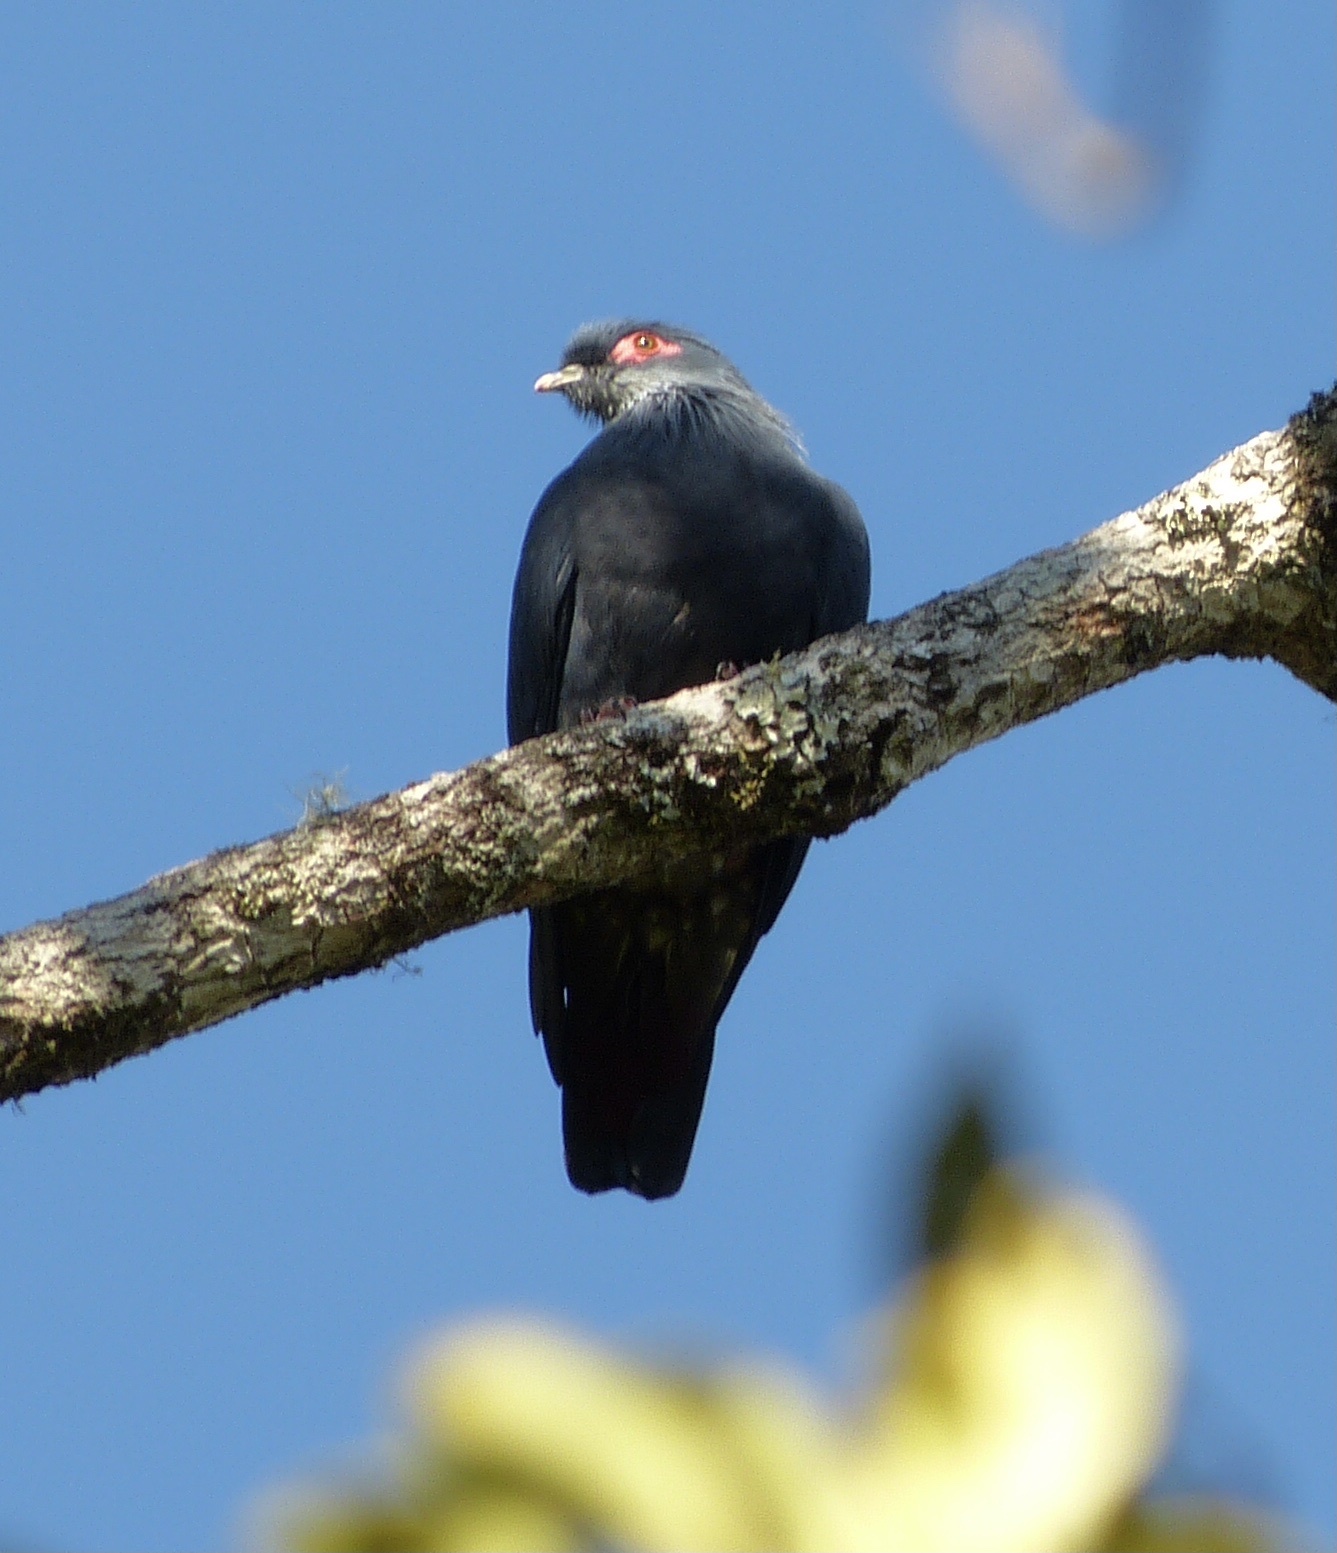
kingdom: Animalia
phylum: Chordata
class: Aves
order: Columbiformes
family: Columbidae
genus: Alectroenas
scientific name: Alectroenas madagascariensis
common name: Madagascar blue pigeon
